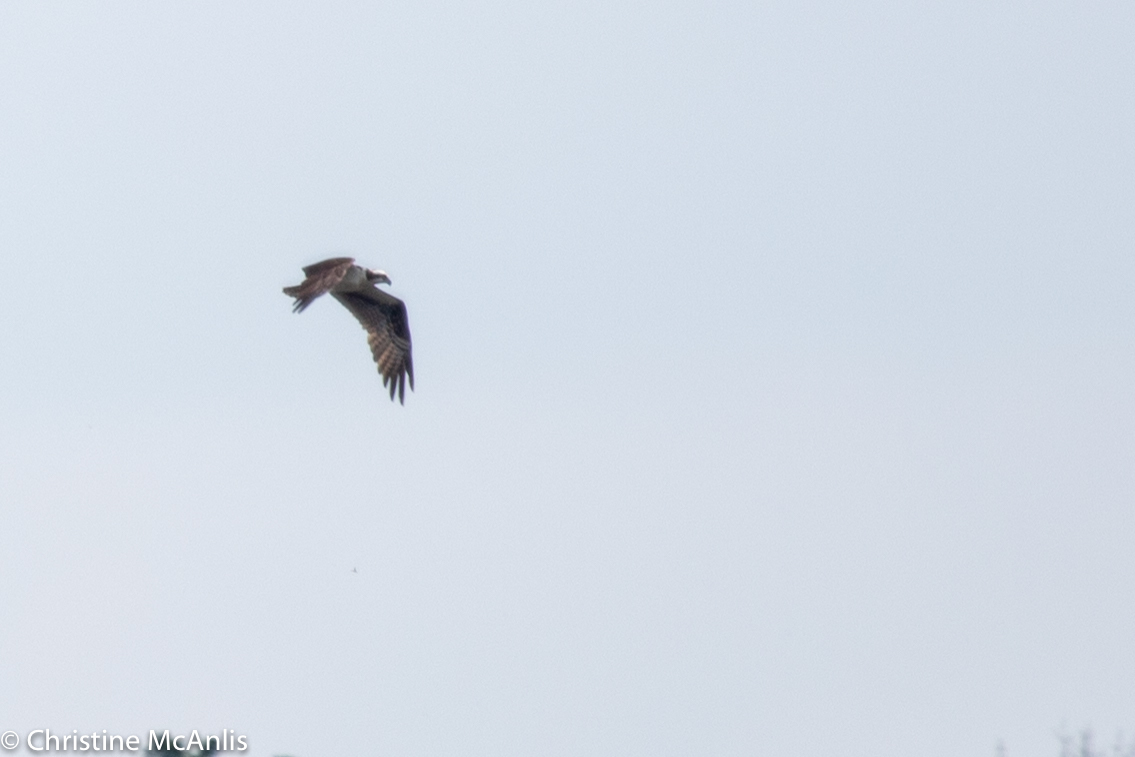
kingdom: Animalia
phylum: Chordata
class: Aves
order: Accipitriformes
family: Pandionidae
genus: Pandion
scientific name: Pandion haliaetus
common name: Osprey
